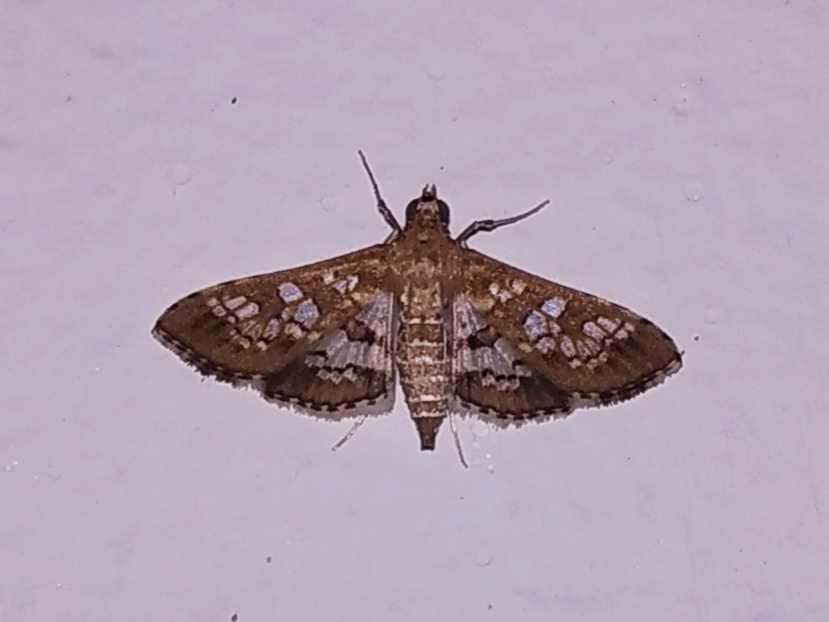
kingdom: Animalia
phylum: Arthropoda
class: Insecta
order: Lepidoptera
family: Crambidae
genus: Sameodes
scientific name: Sameodes cancellalis
